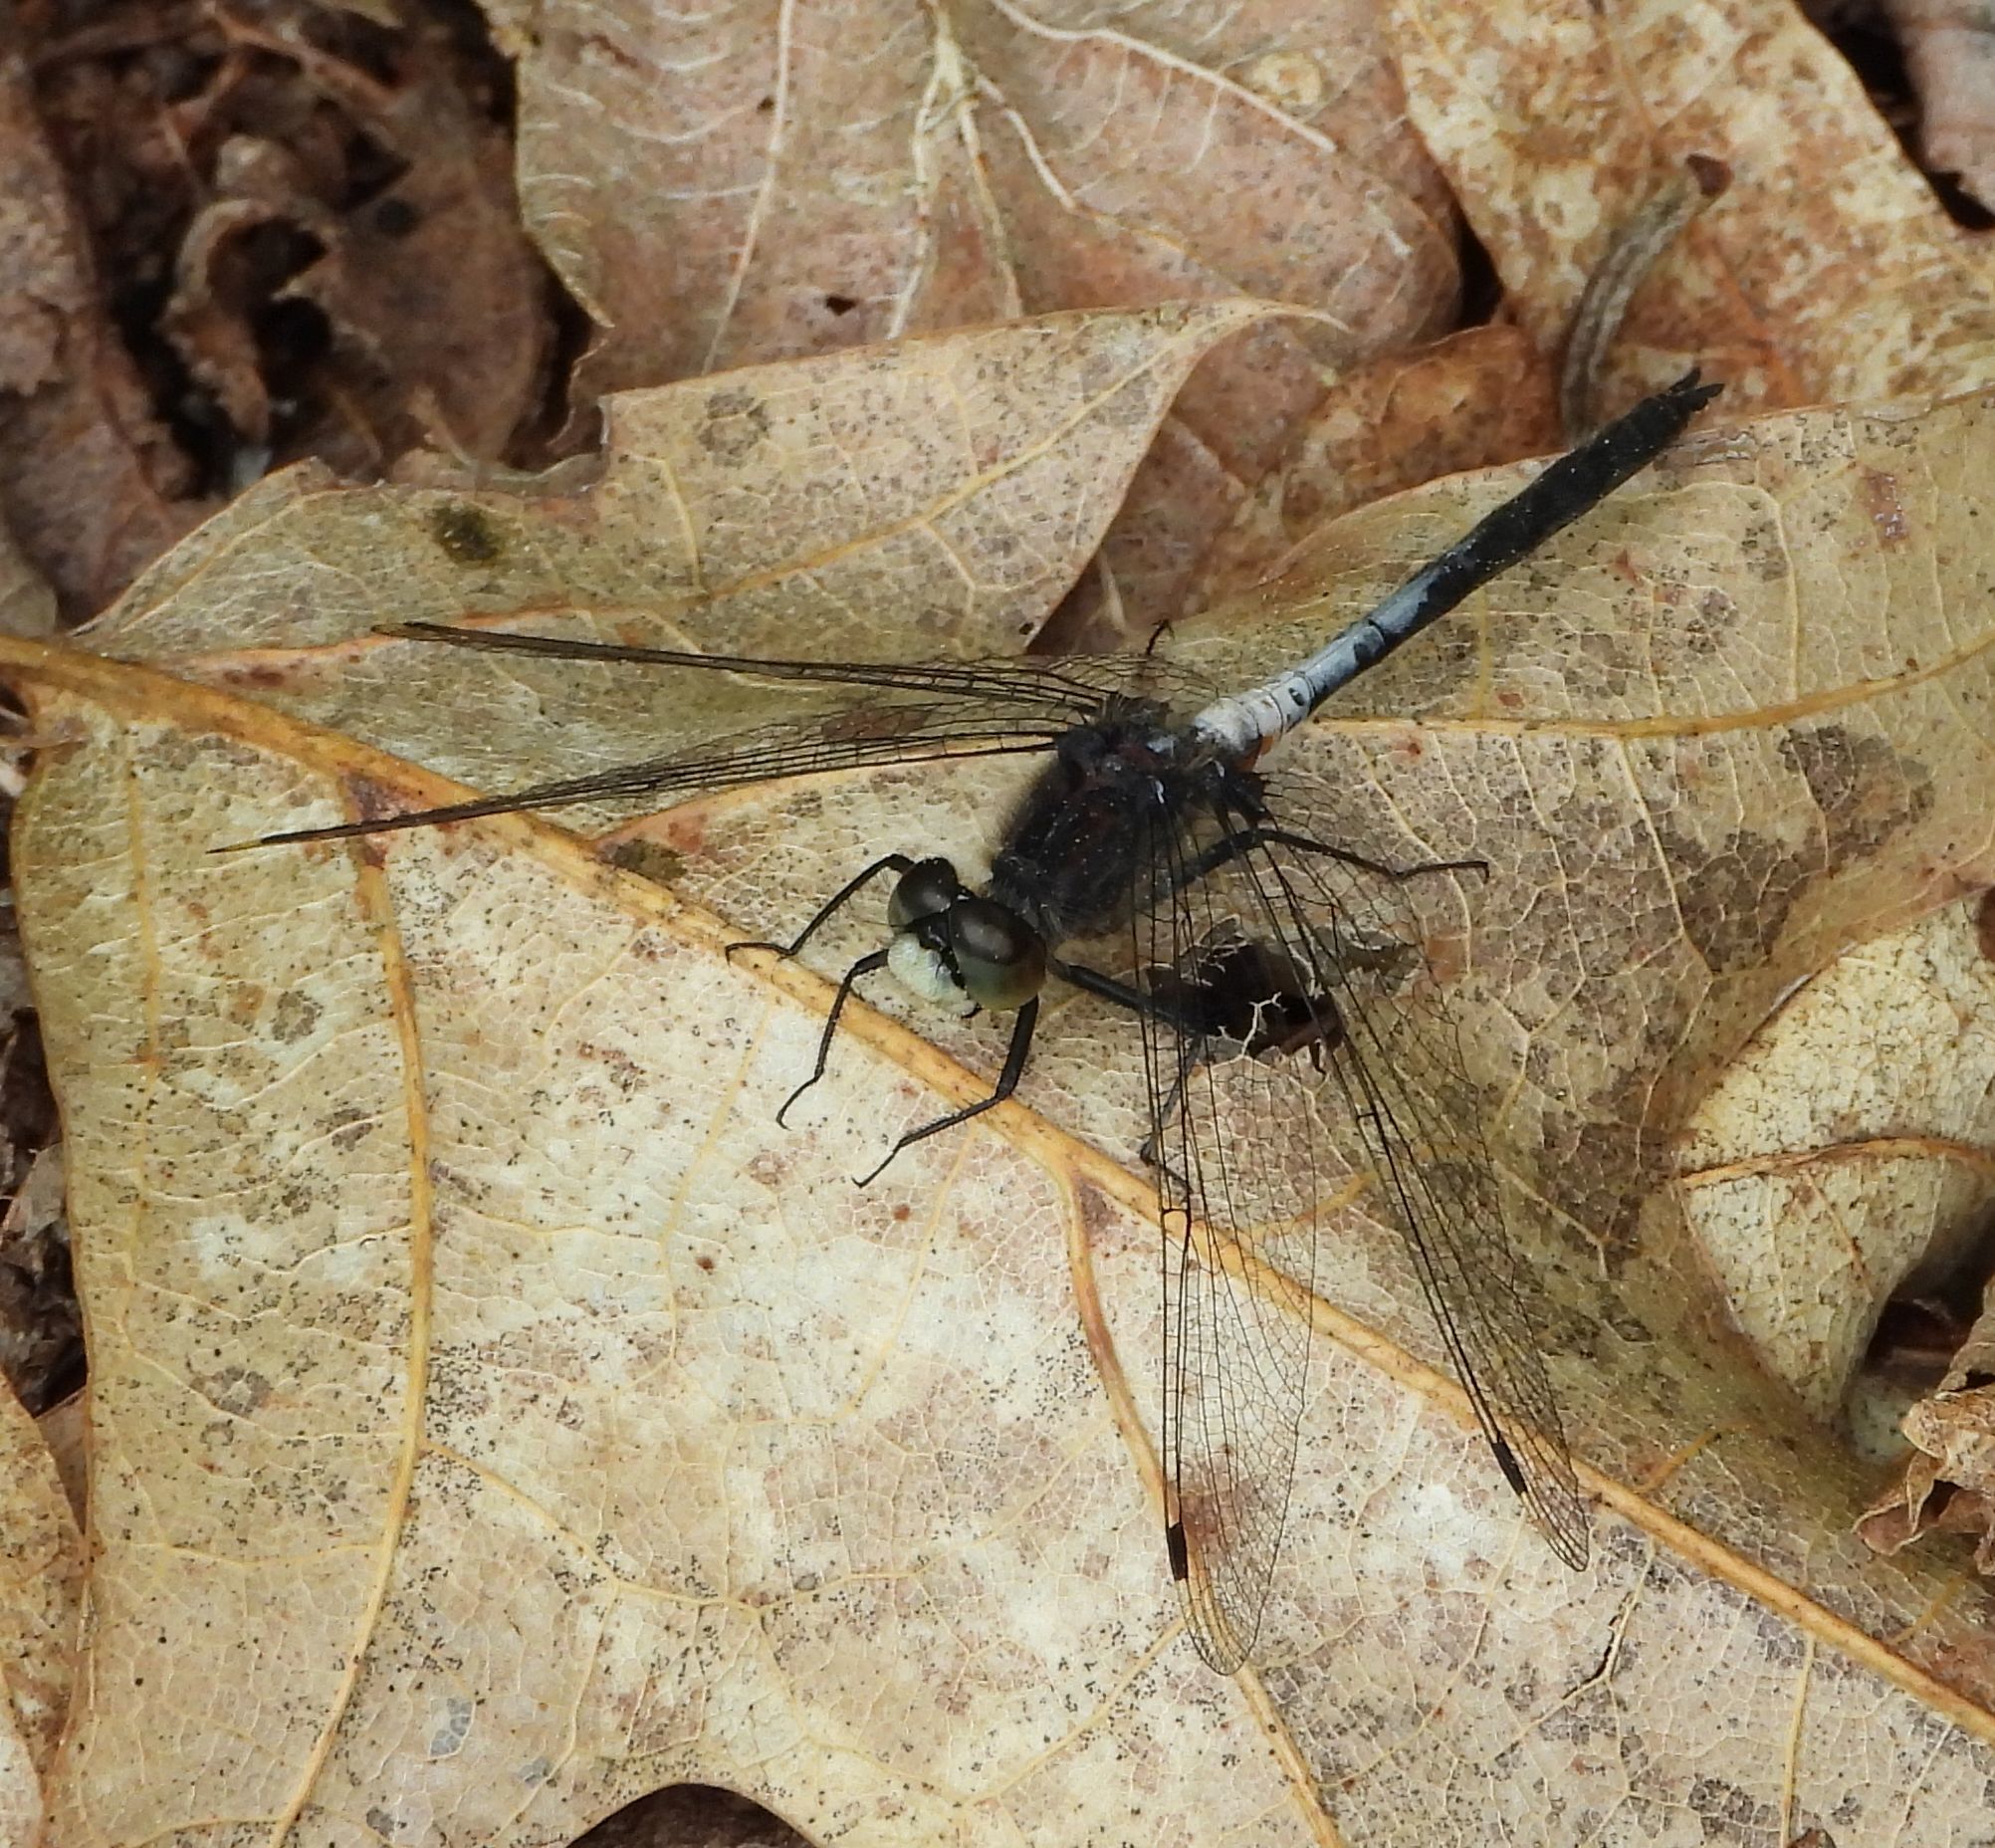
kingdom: Animalia
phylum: Arthropoda
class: Insecta
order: Odonata
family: Libellulidae
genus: Leucorrhinia
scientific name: Leucorrhinia proxima
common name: Belted whiteface
